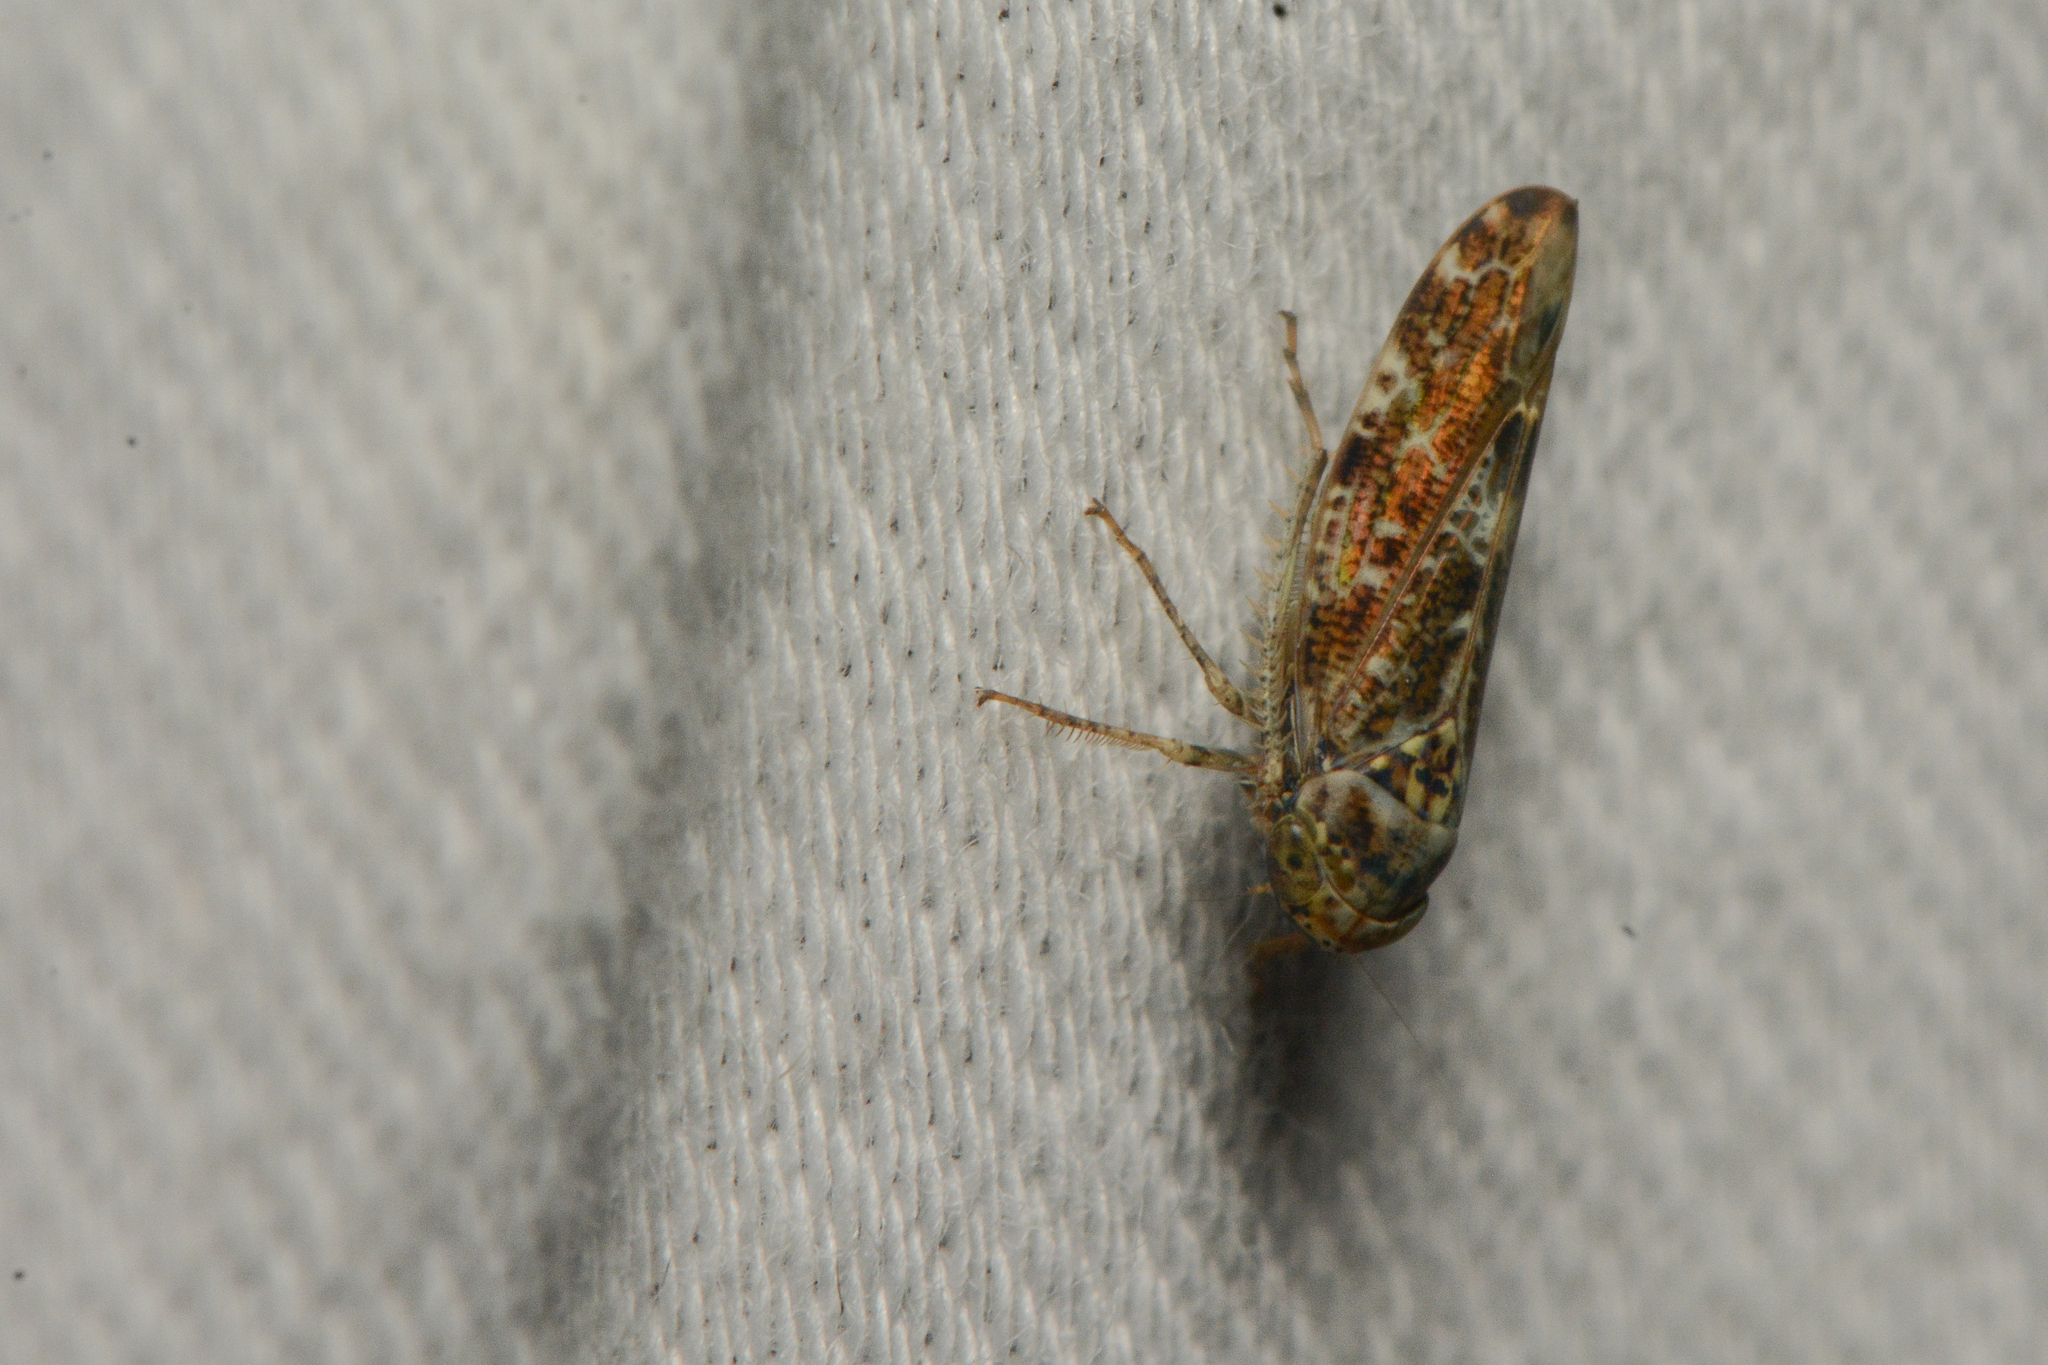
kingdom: Animalia
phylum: Arthropoda
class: Insecta
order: Hemiptera
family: Cicadellidae
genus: Allygus
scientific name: Allygus mixtus
